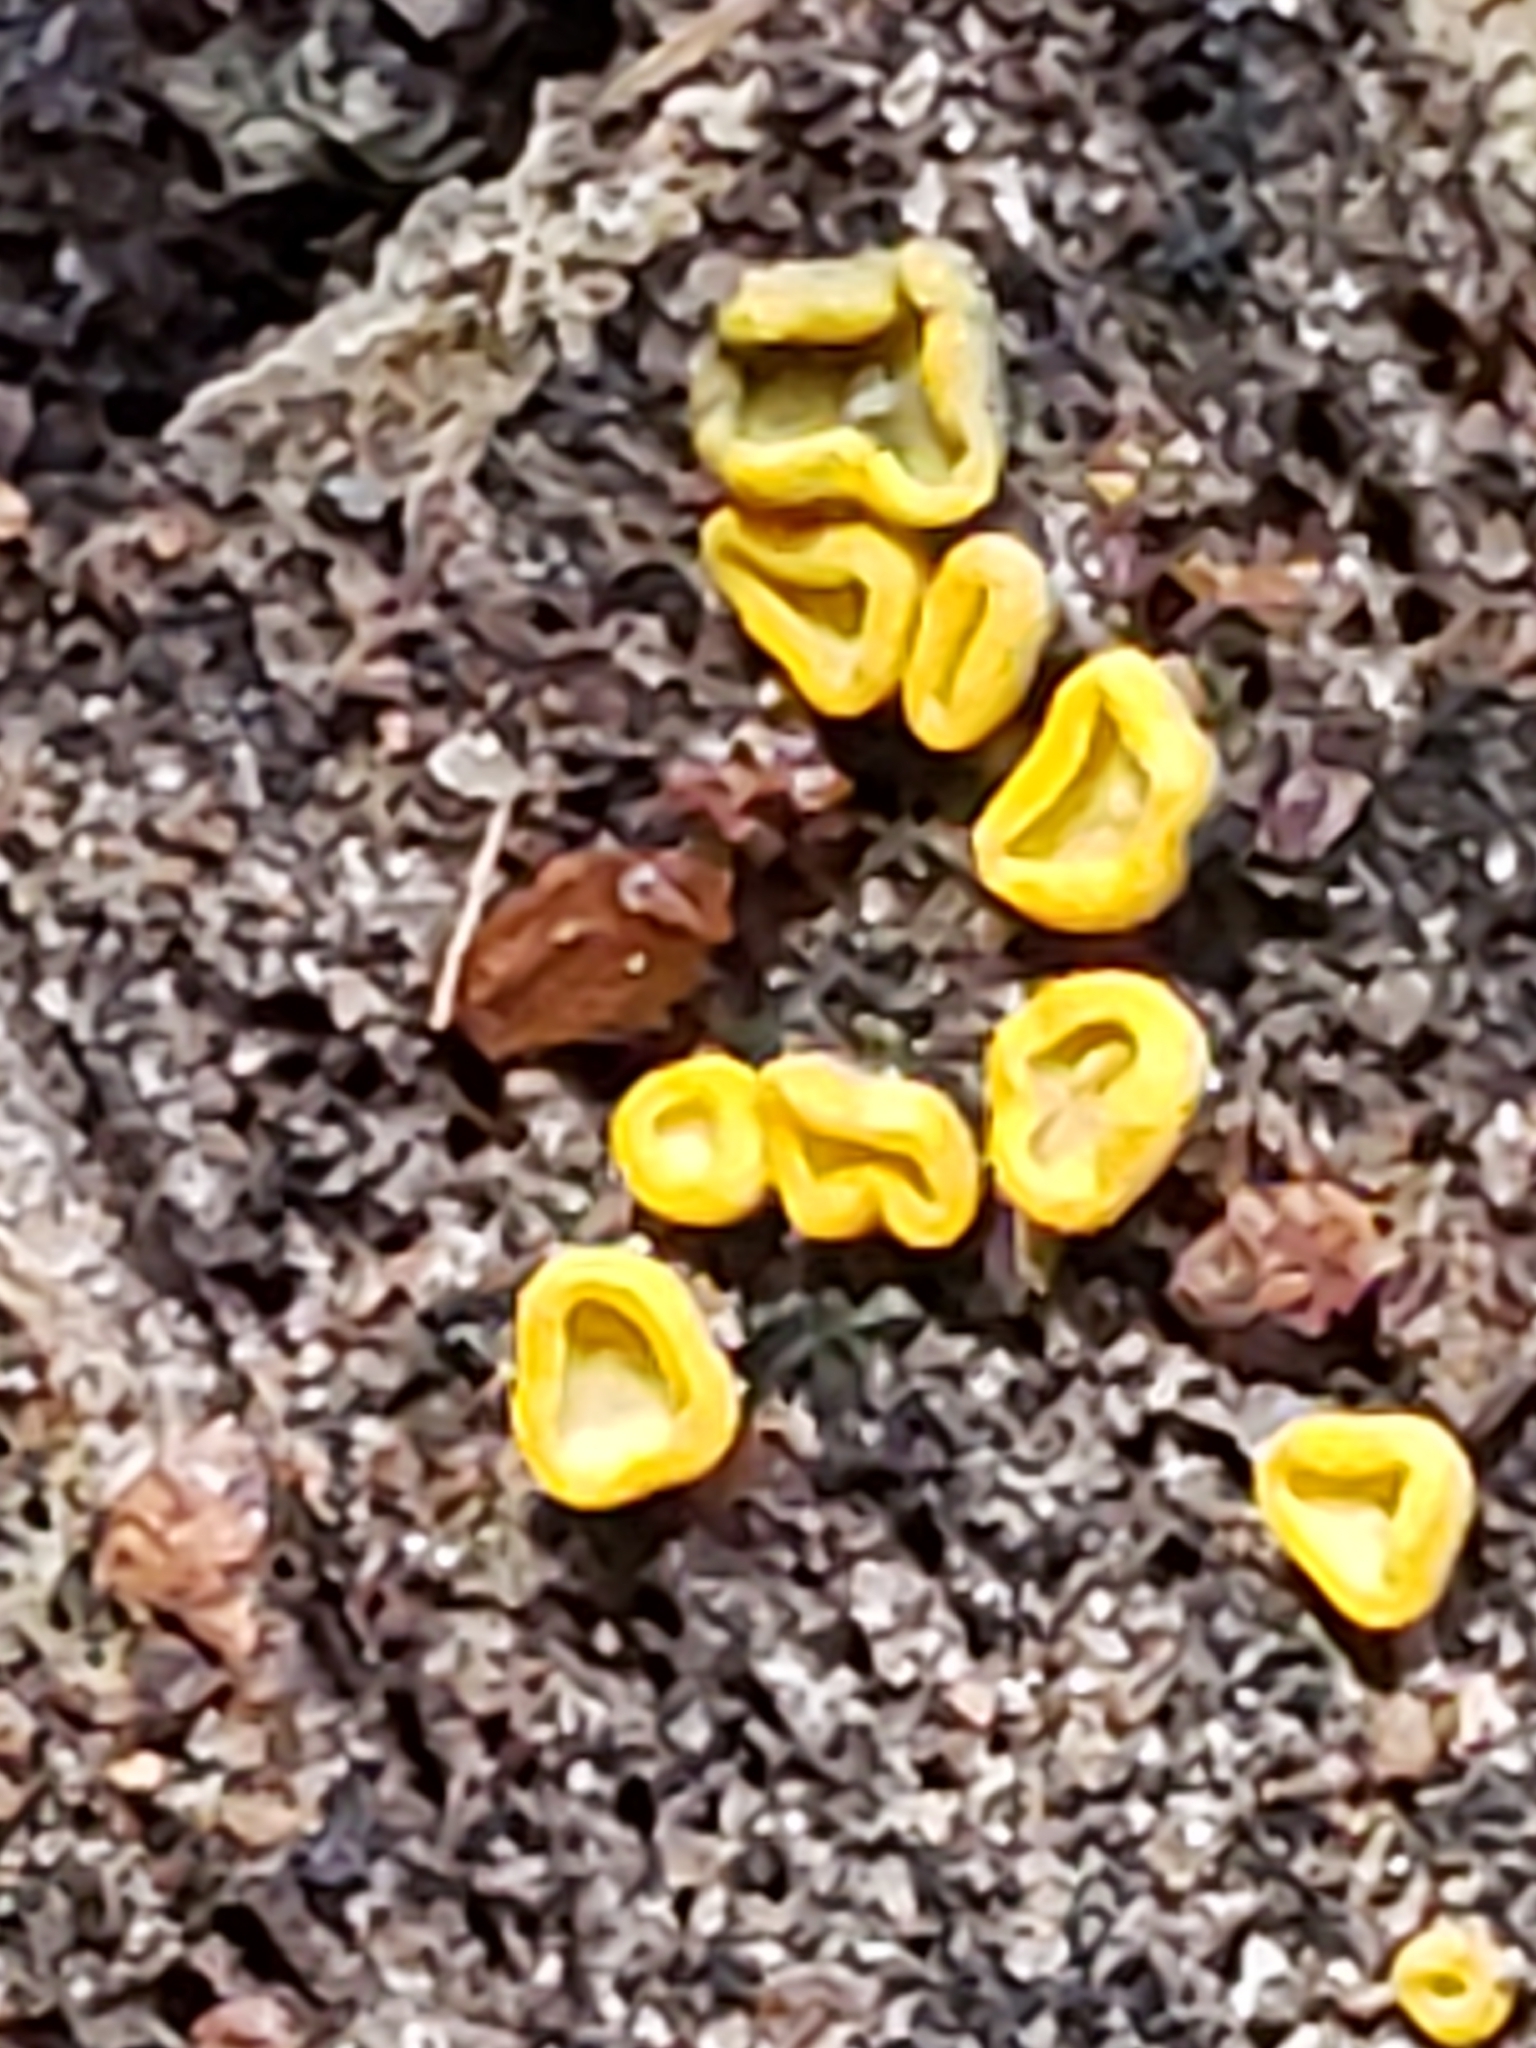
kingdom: Fungi
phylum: Ascomycota
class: Leotiomycetes
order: Helotiales
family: Chlorospleniaceae
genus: Chlorosplenium
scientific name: Chlorosplenium chlora
